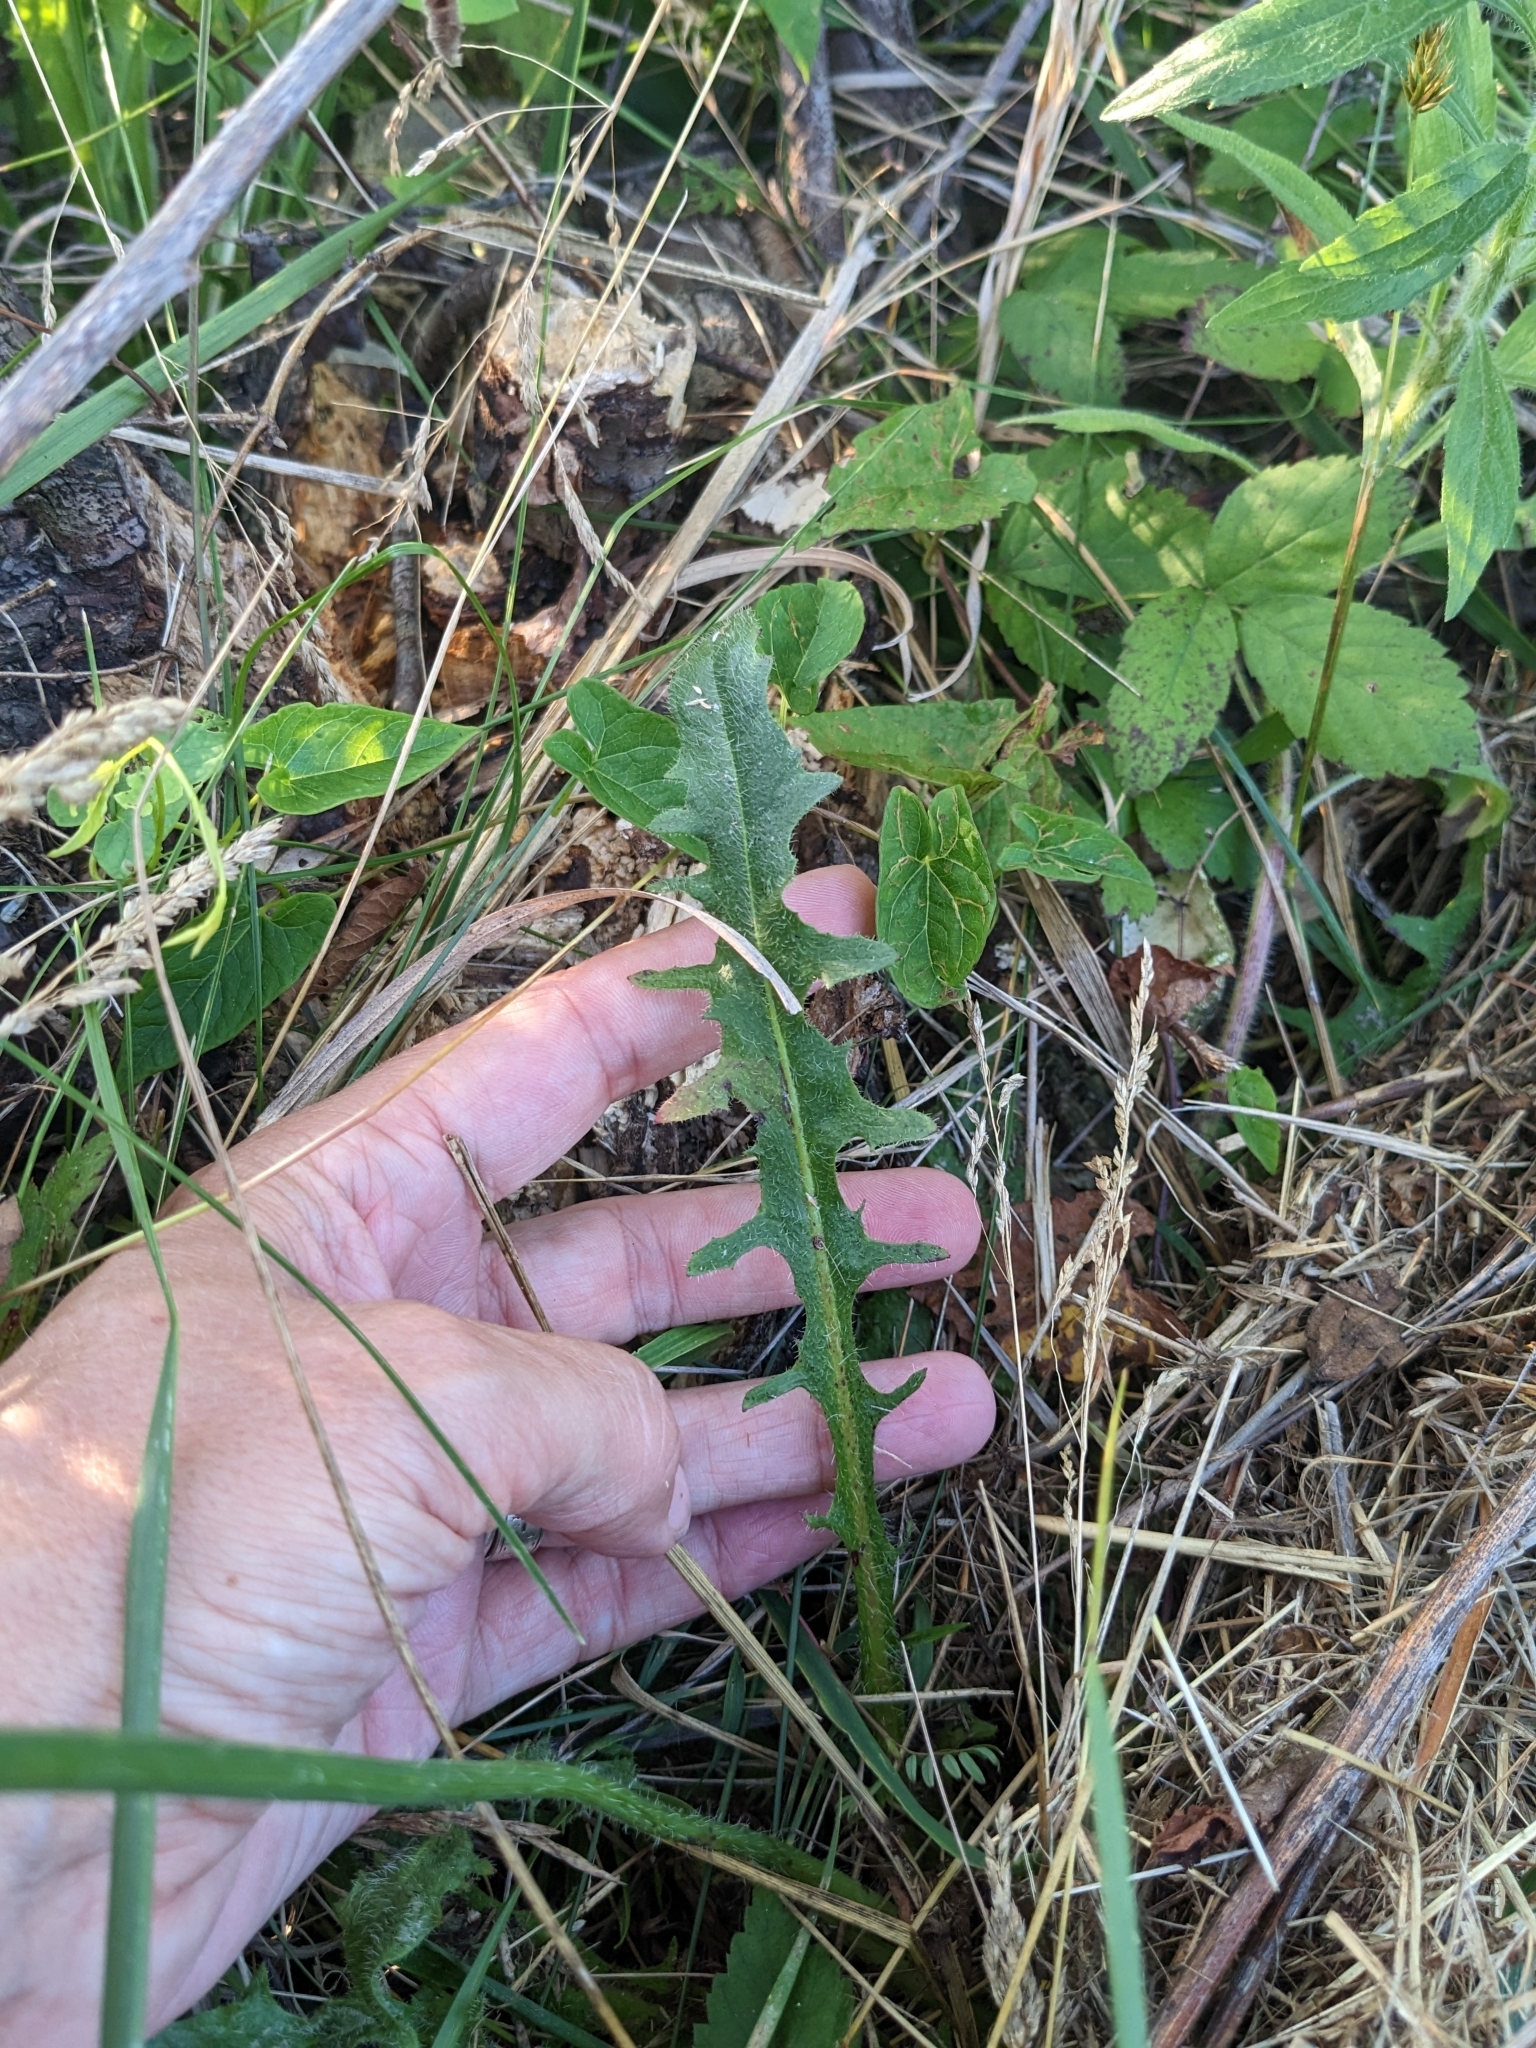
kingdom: Plantae
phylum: Tracheophyta
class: Magnoliopsida
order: Asterales
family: Asteraceae
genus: Hypochaeris
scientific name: Hypochaeris radicata
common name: Flatweed
